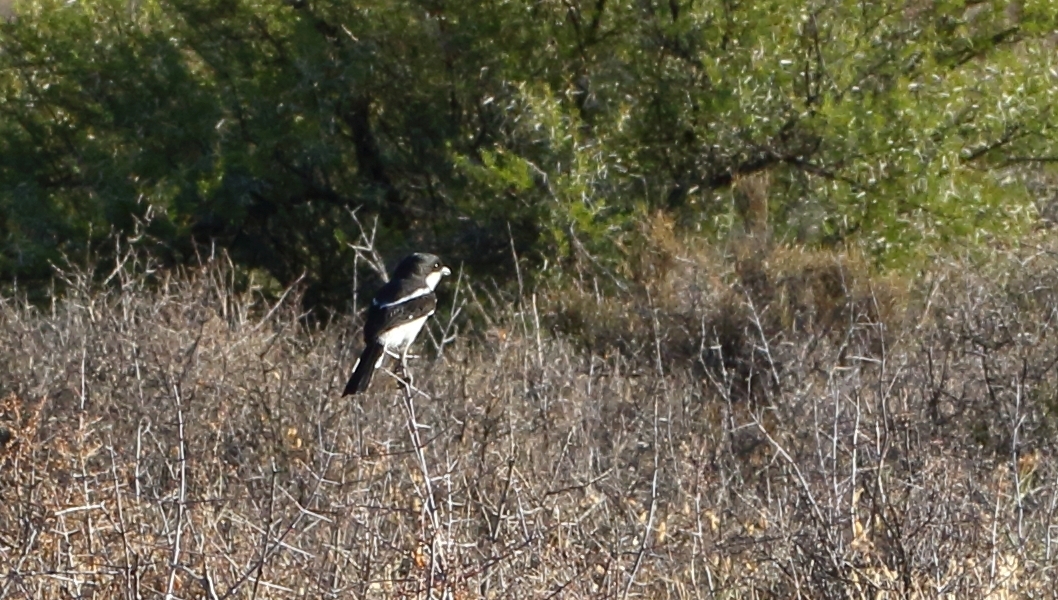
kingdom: Animalia
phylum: Chordata
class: Aves
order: Passeriformes
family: Laniidae
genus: Lanius
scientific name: Lanius collaris
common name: Southern fiscal
